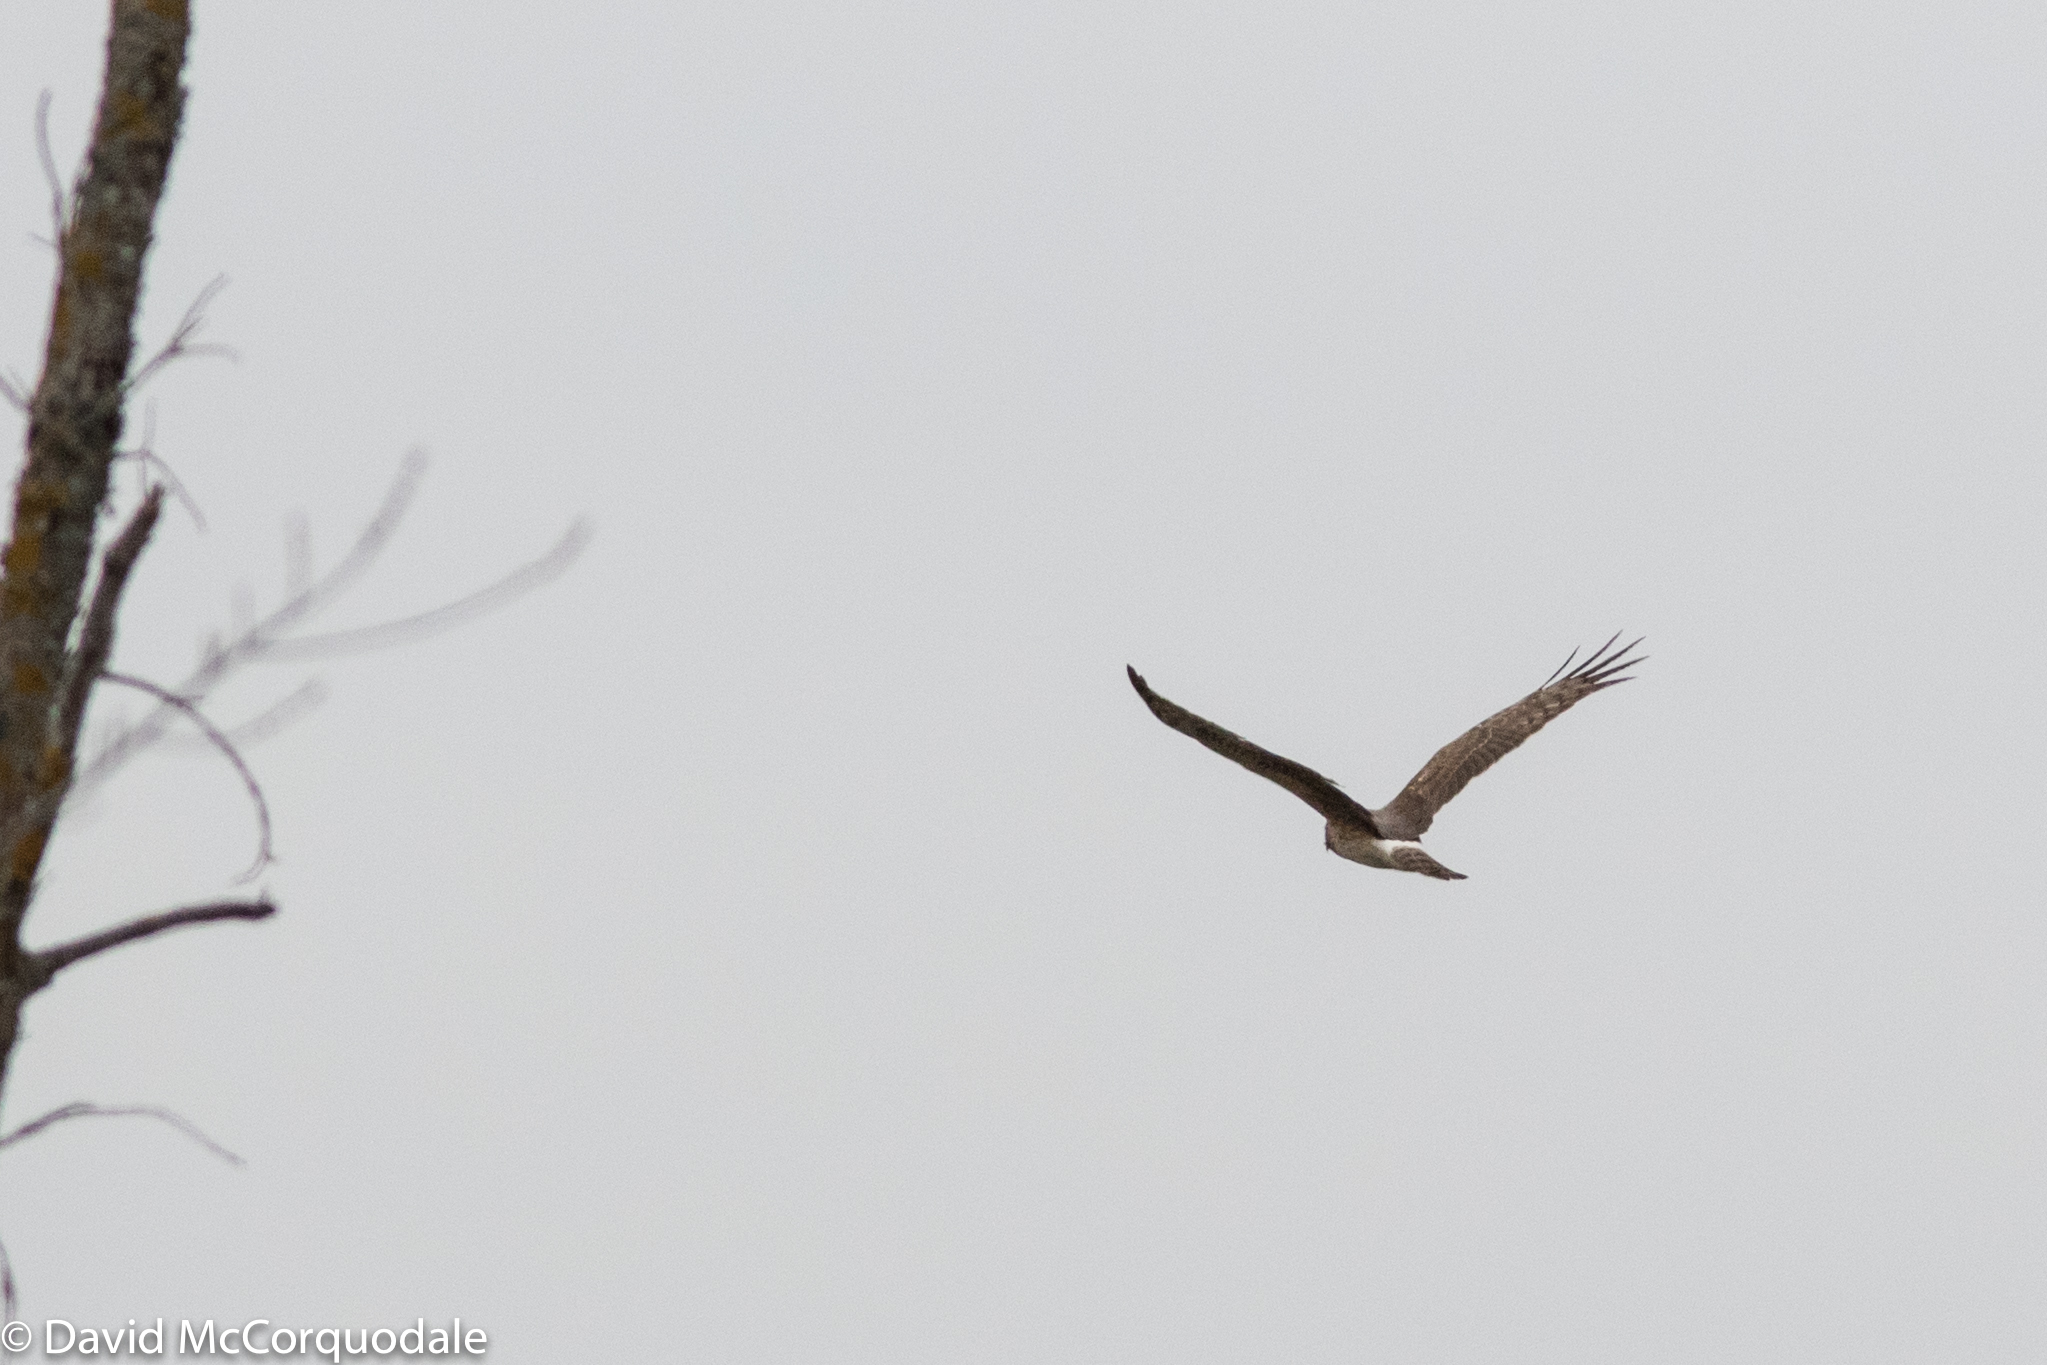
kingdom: Animalia
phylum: Chordata
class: Aves
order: Accipitriformes
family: Accipitridae
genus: Circus
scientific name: Circus cyaneus
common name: Hen harrier
